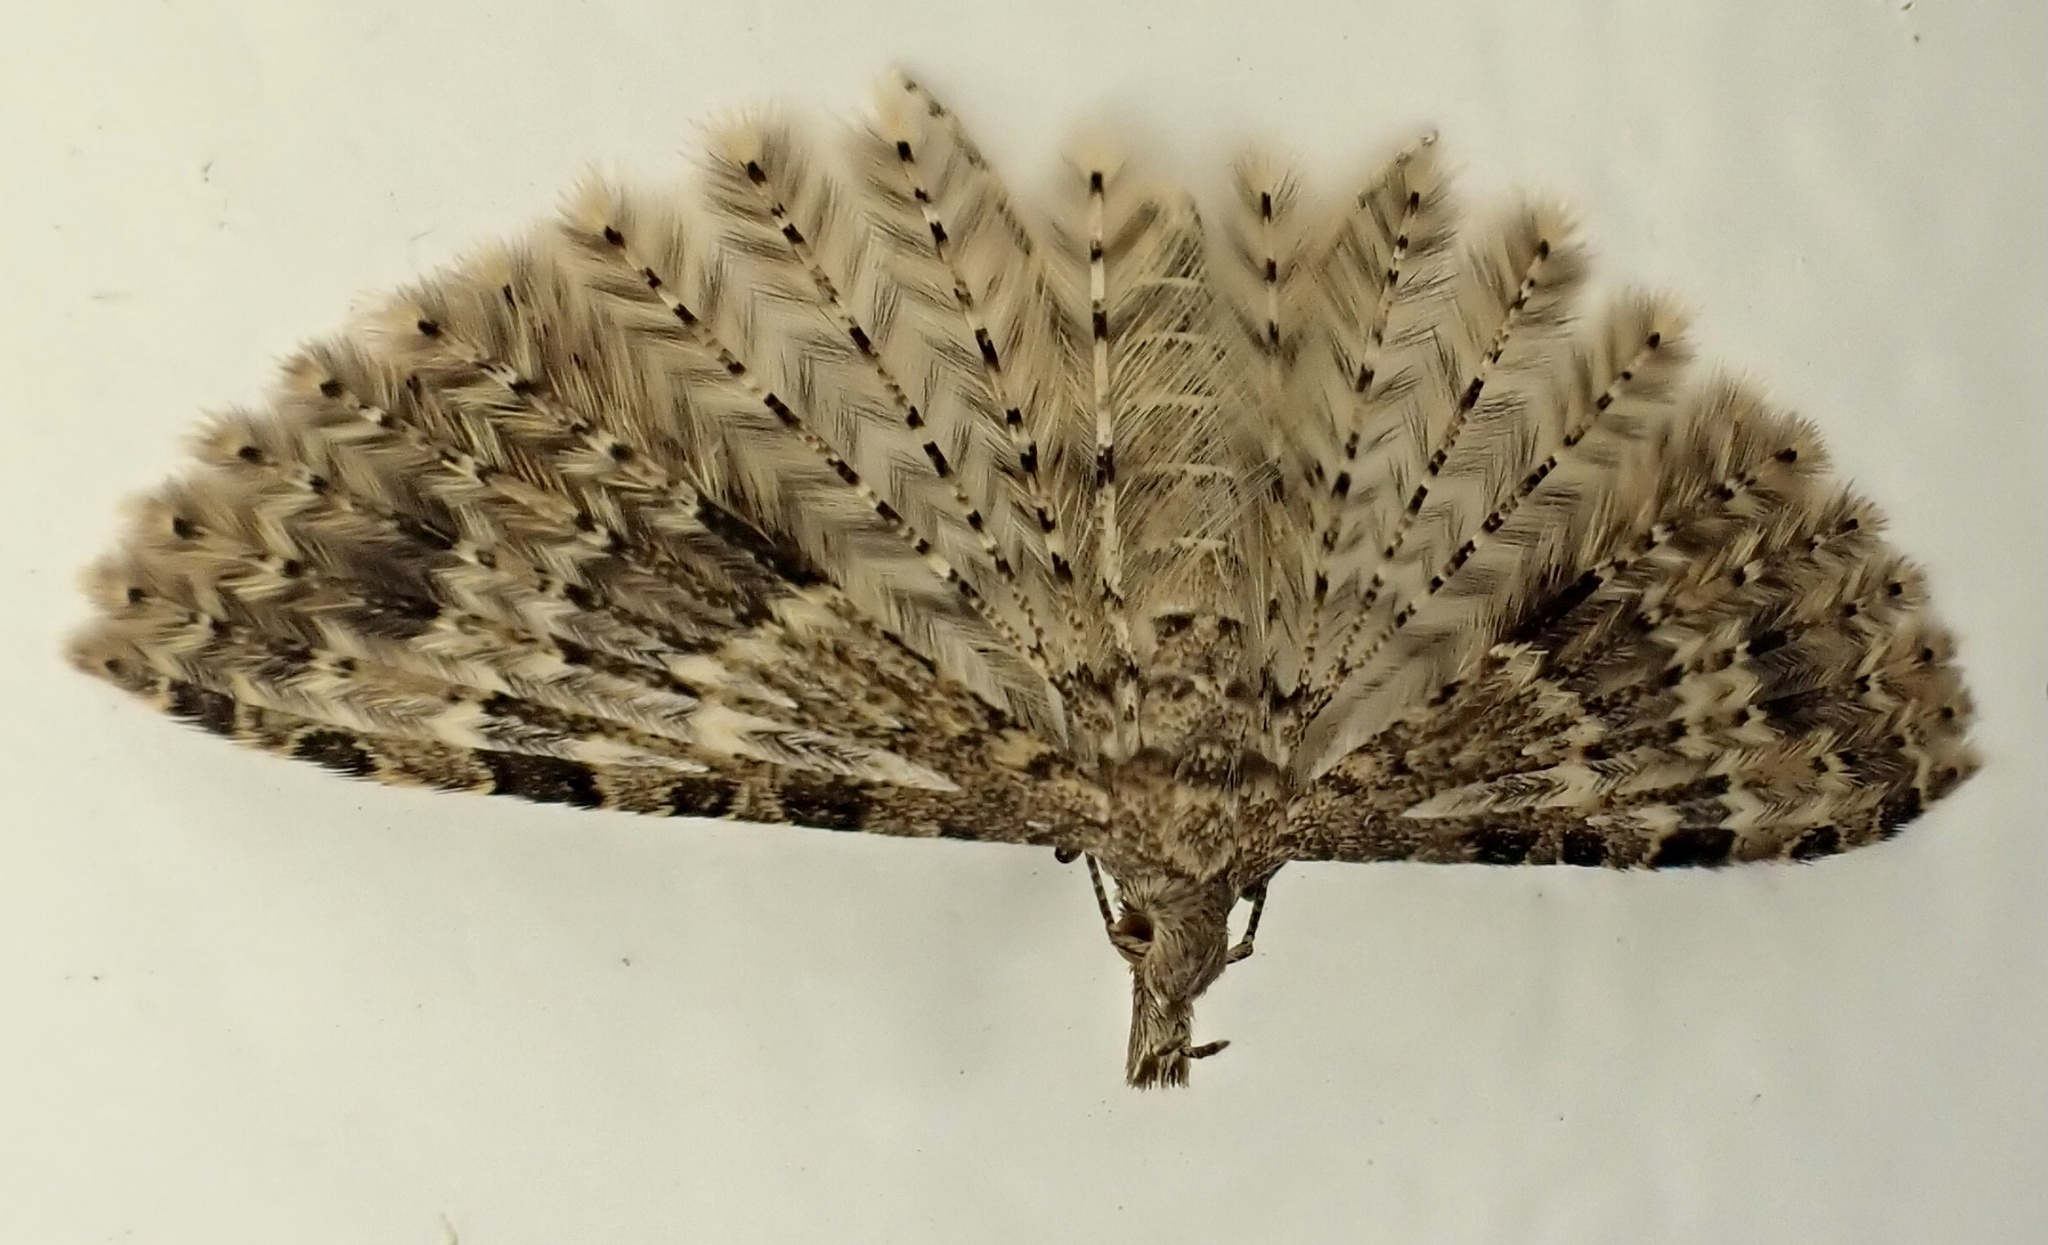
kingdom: Animalia
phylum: Arthropoda
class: Insecta
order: Lepidoptera
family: Alucitidae
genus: Alucita
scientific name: Alucita hexadactyla
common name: Twenty-plume moth
